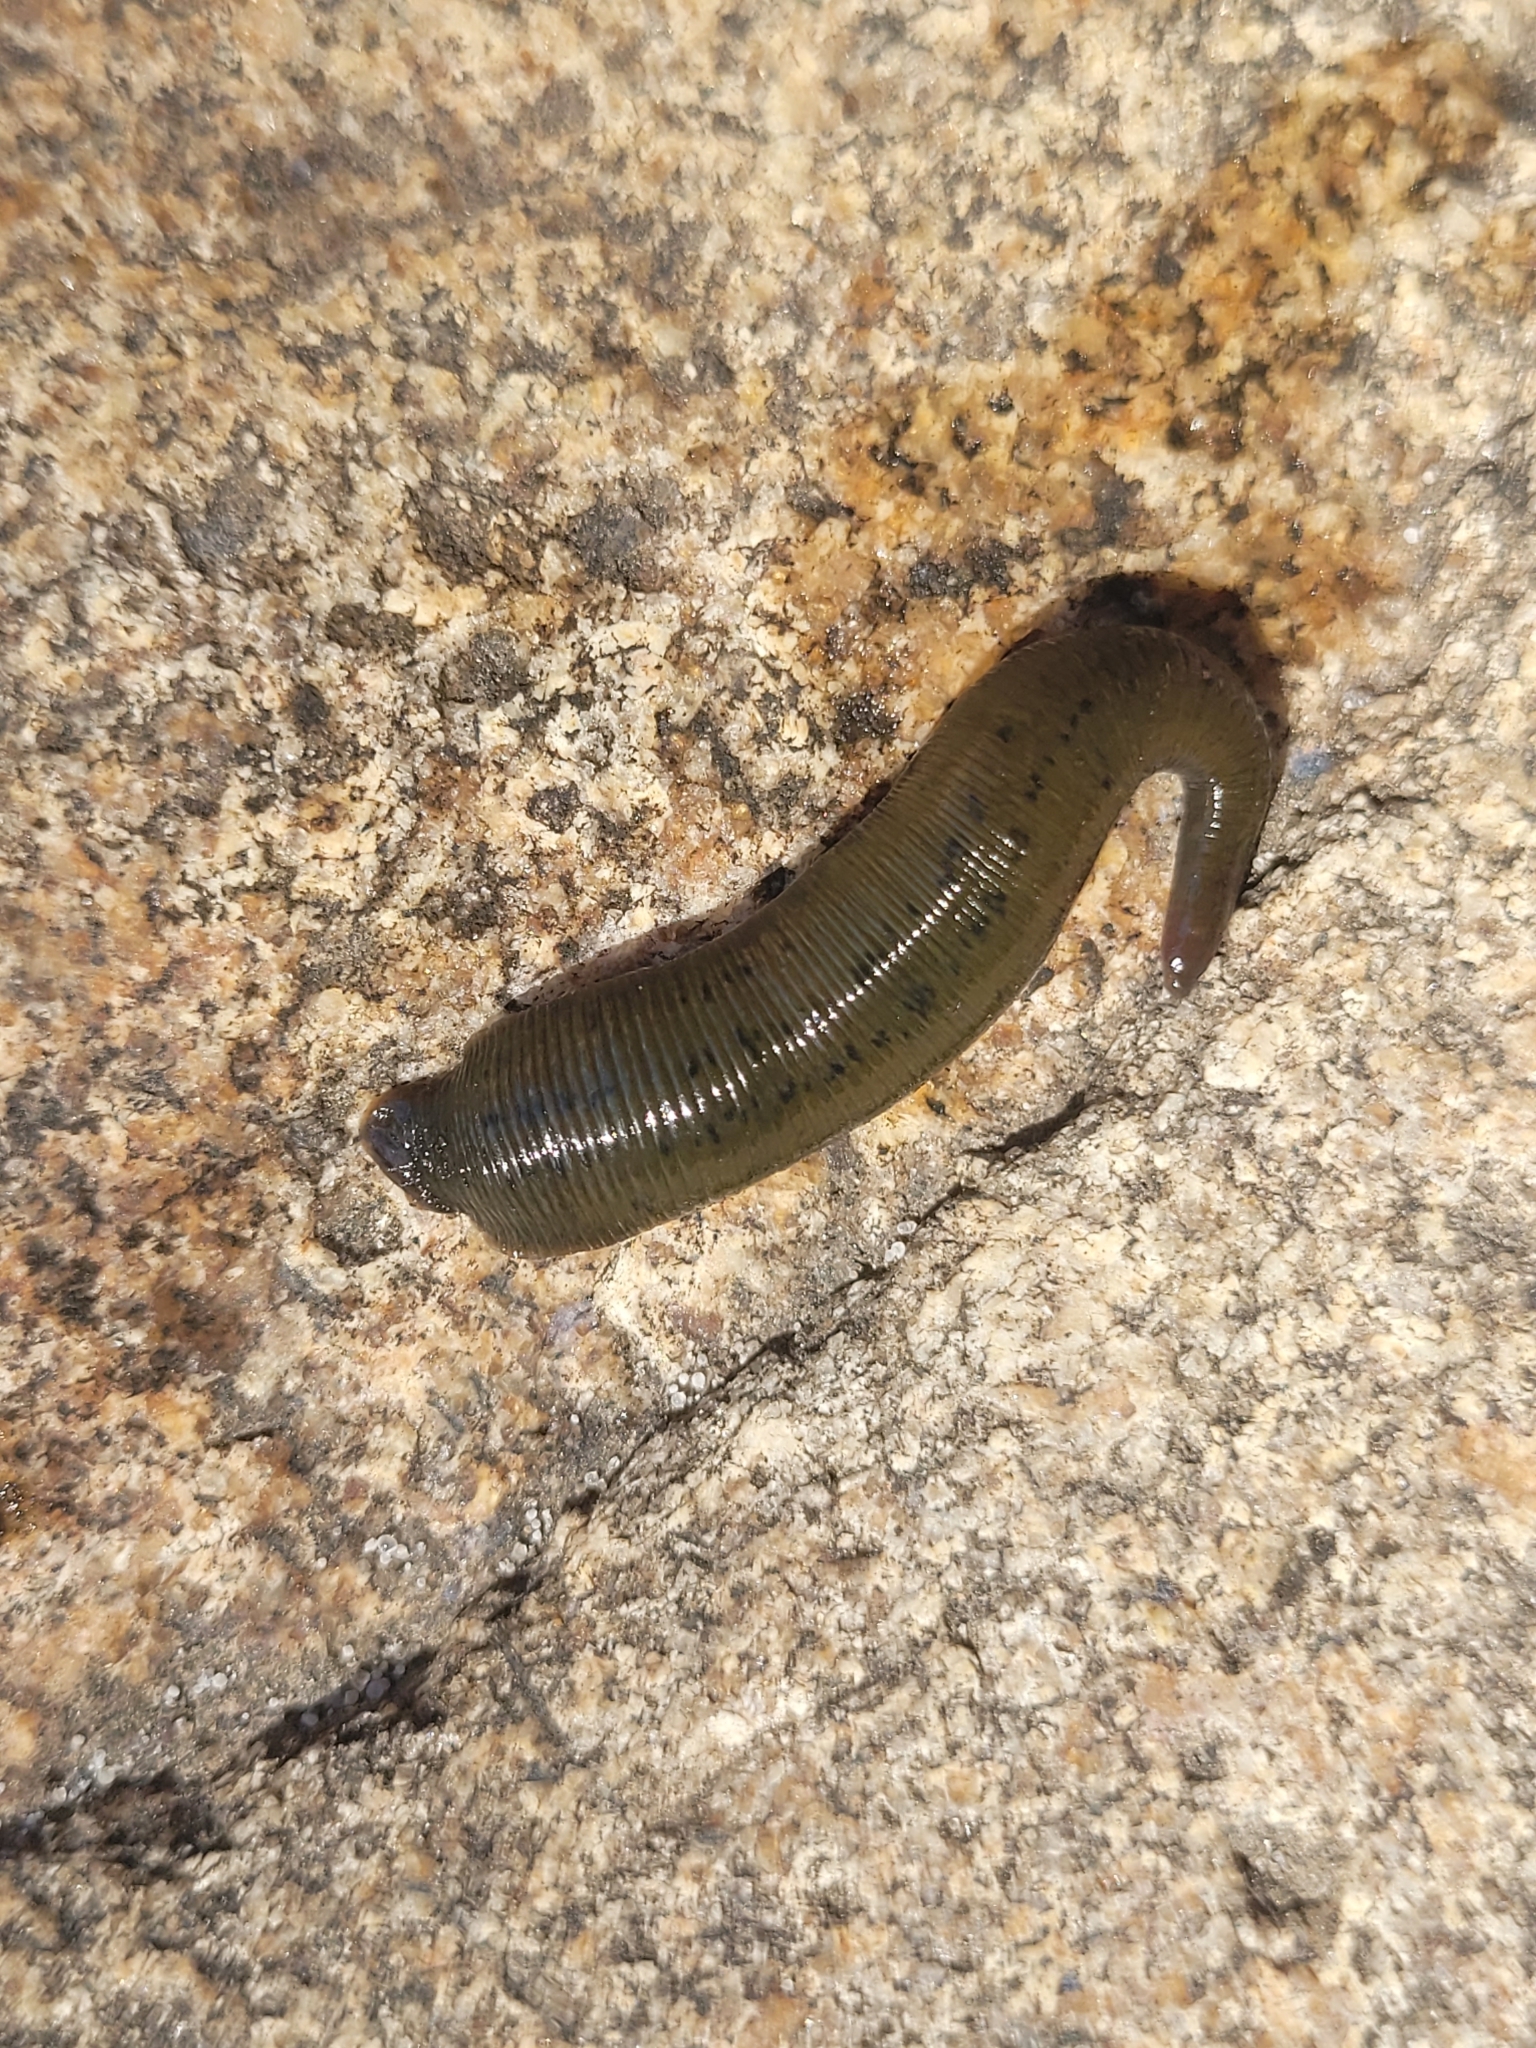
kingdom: Animalia
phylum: Annelida
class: Clitellata
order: Arhynchobdellida
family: Haemopidae
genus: Haemopis
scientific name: Haemopis marmorata
